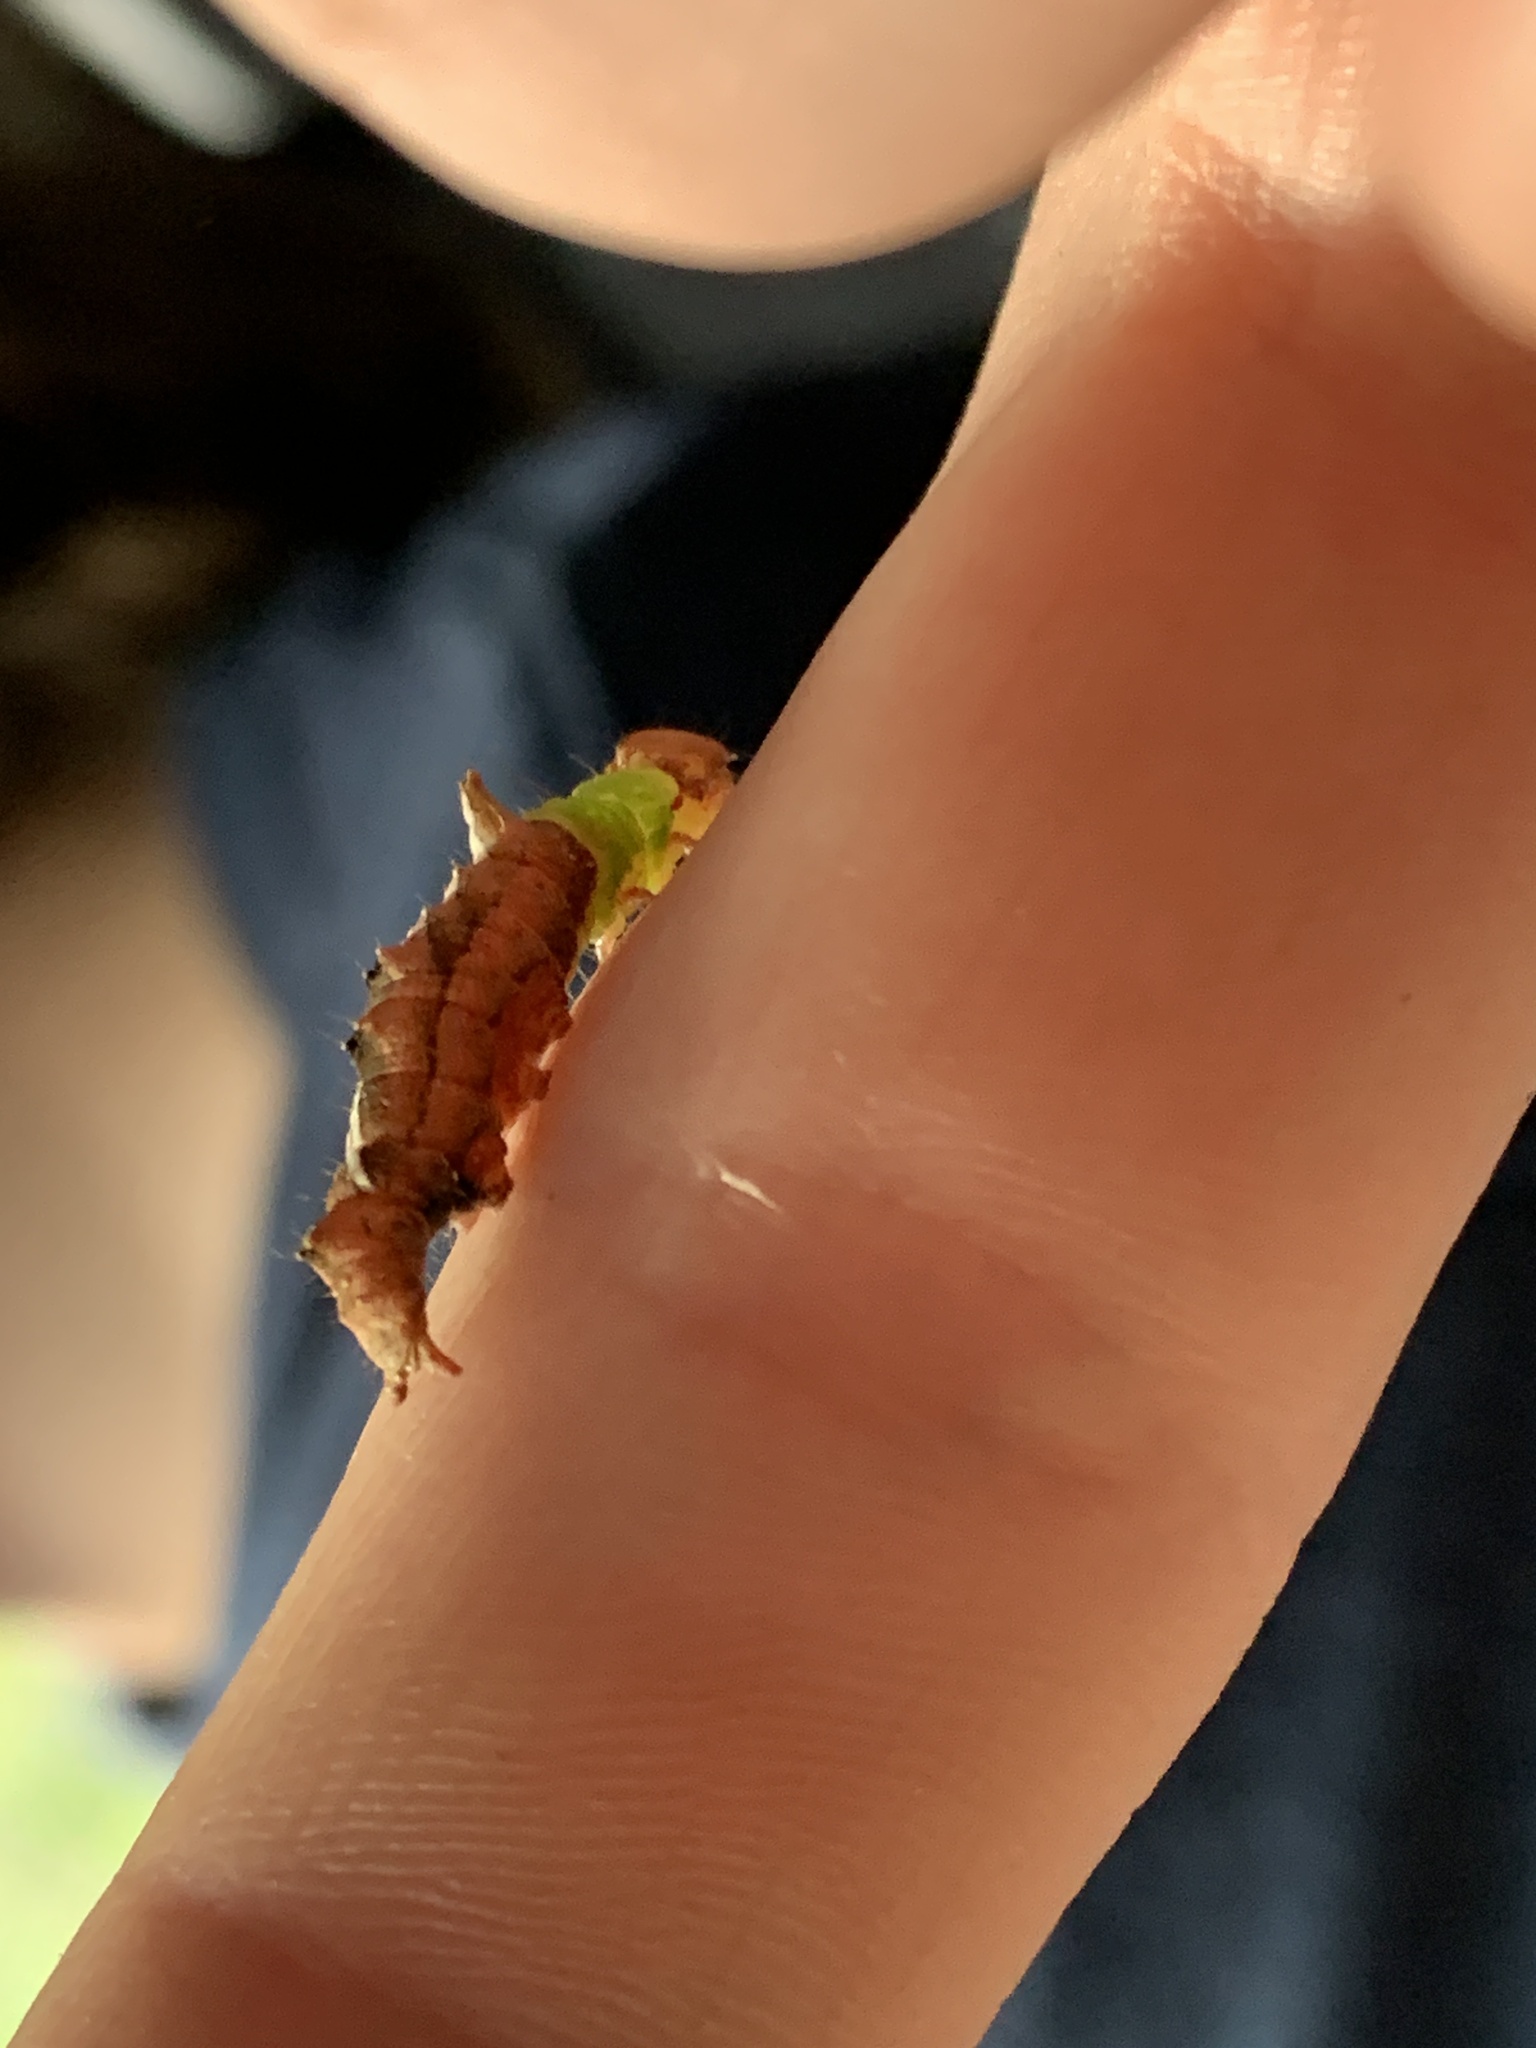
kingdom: Animalia
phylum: Arthropoda
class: Insecta
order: Lepidoptera
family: Notodontidae
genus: Schizura
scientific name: Schizura ipomaeae
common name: Morning-glory prominent
